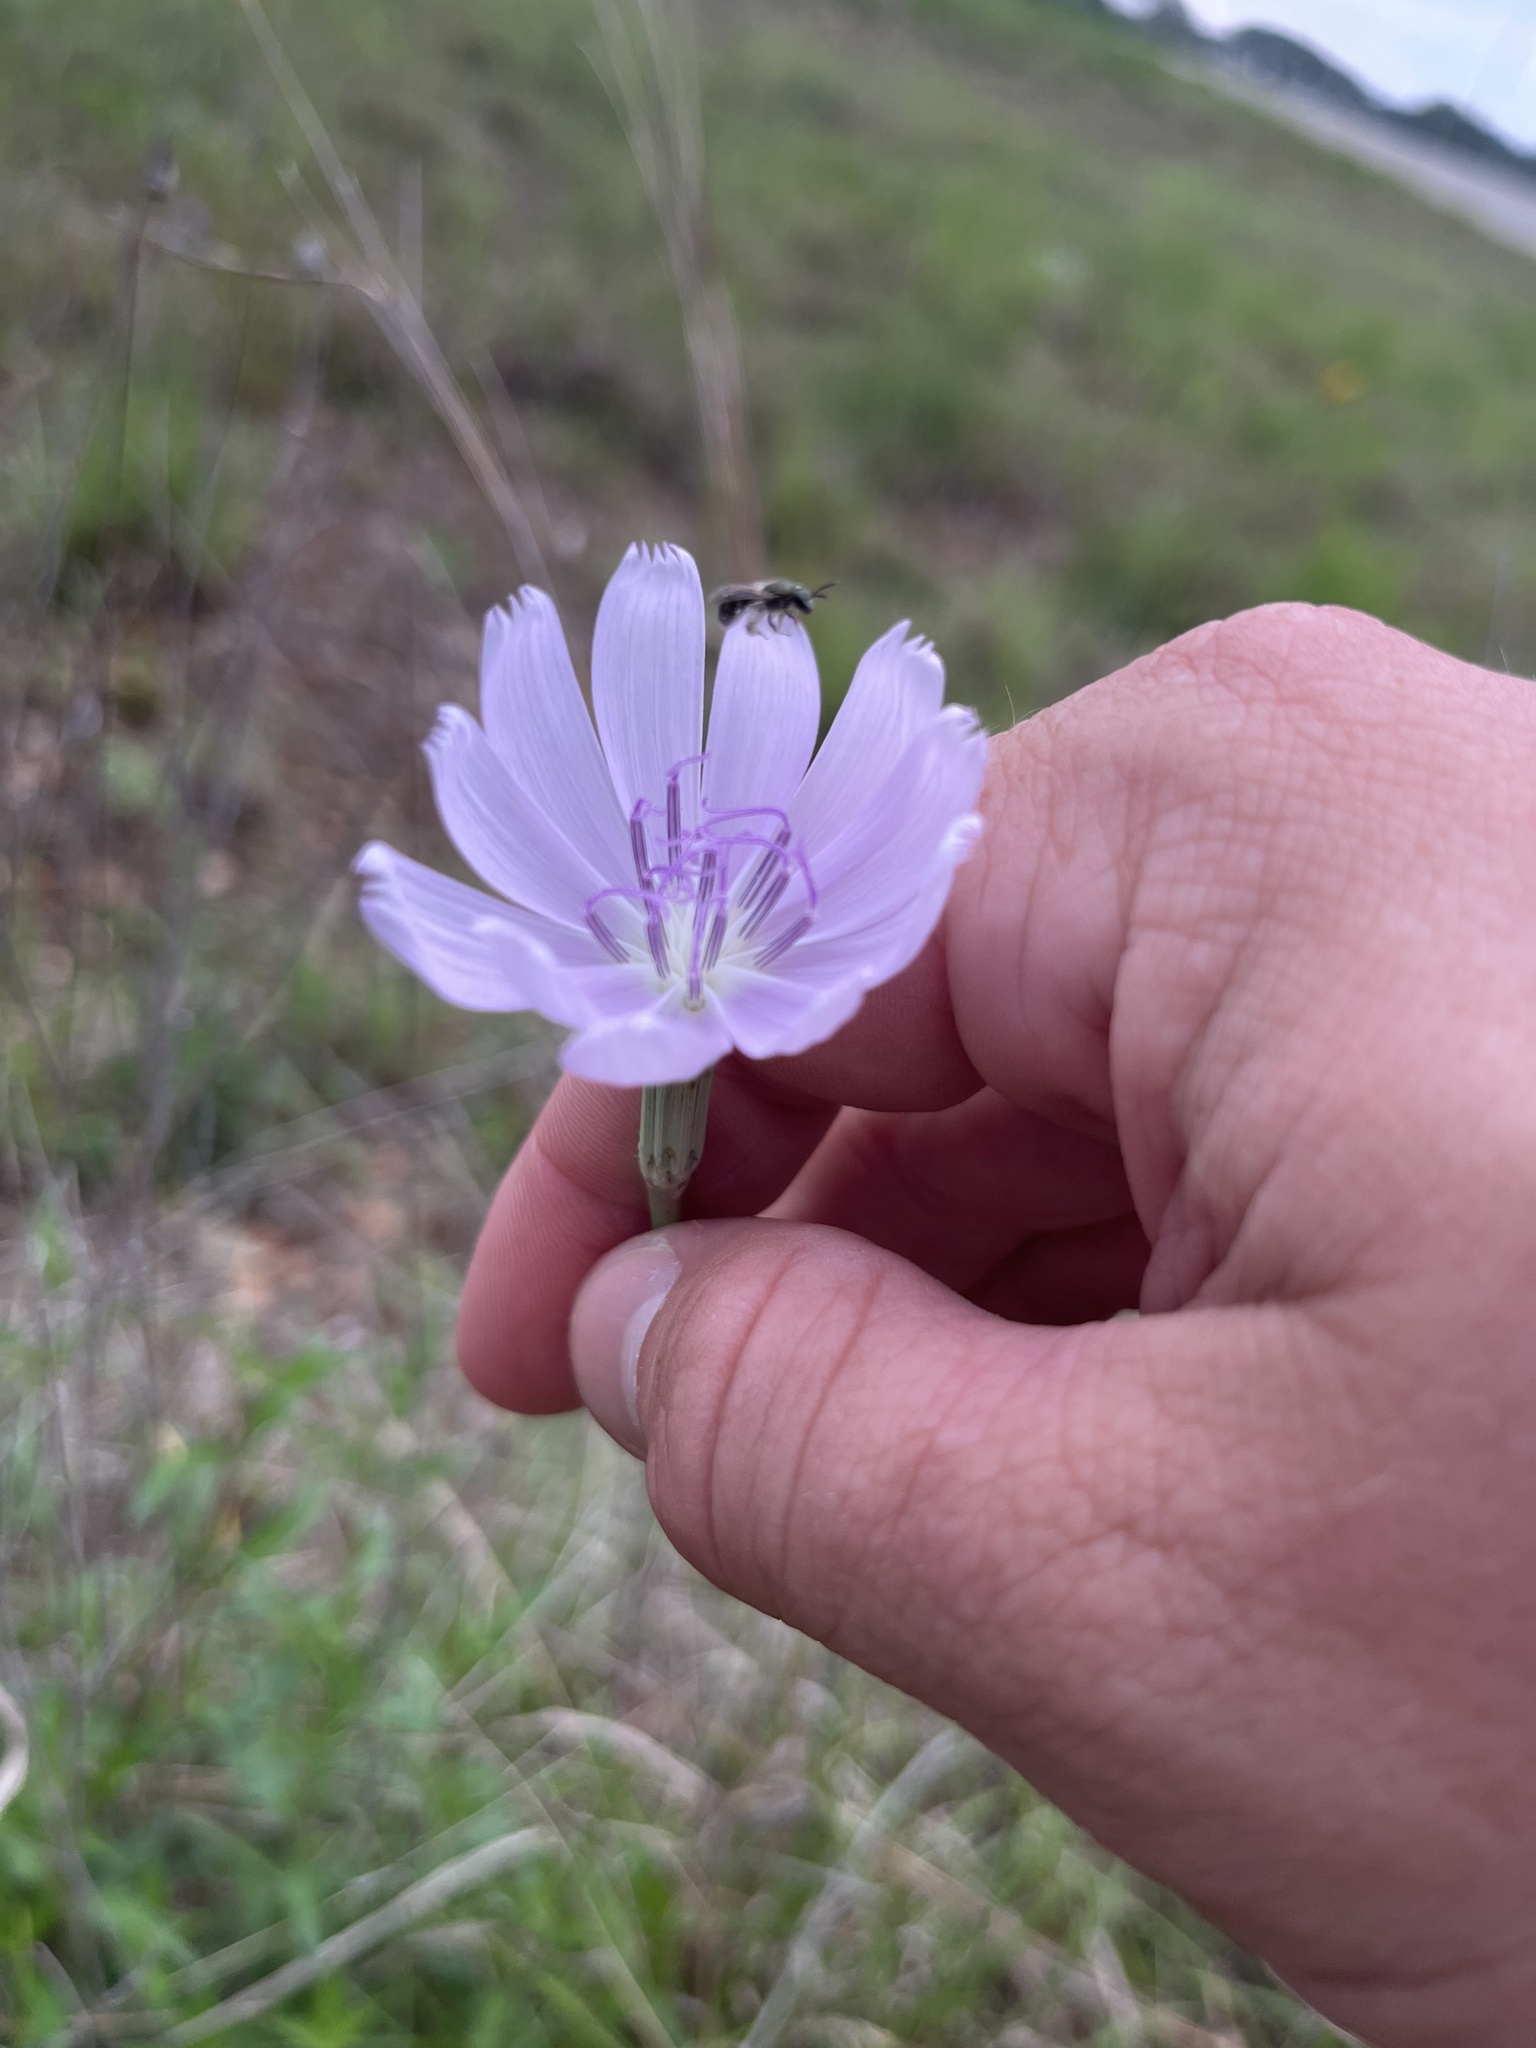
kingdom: Plantae
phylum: Tracheophyta
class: Magnoliopsida
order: Asterales
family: Asteraceae
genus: Lygodesmia
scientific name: Lygodesmia texana
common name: Texas skeleton-plant
